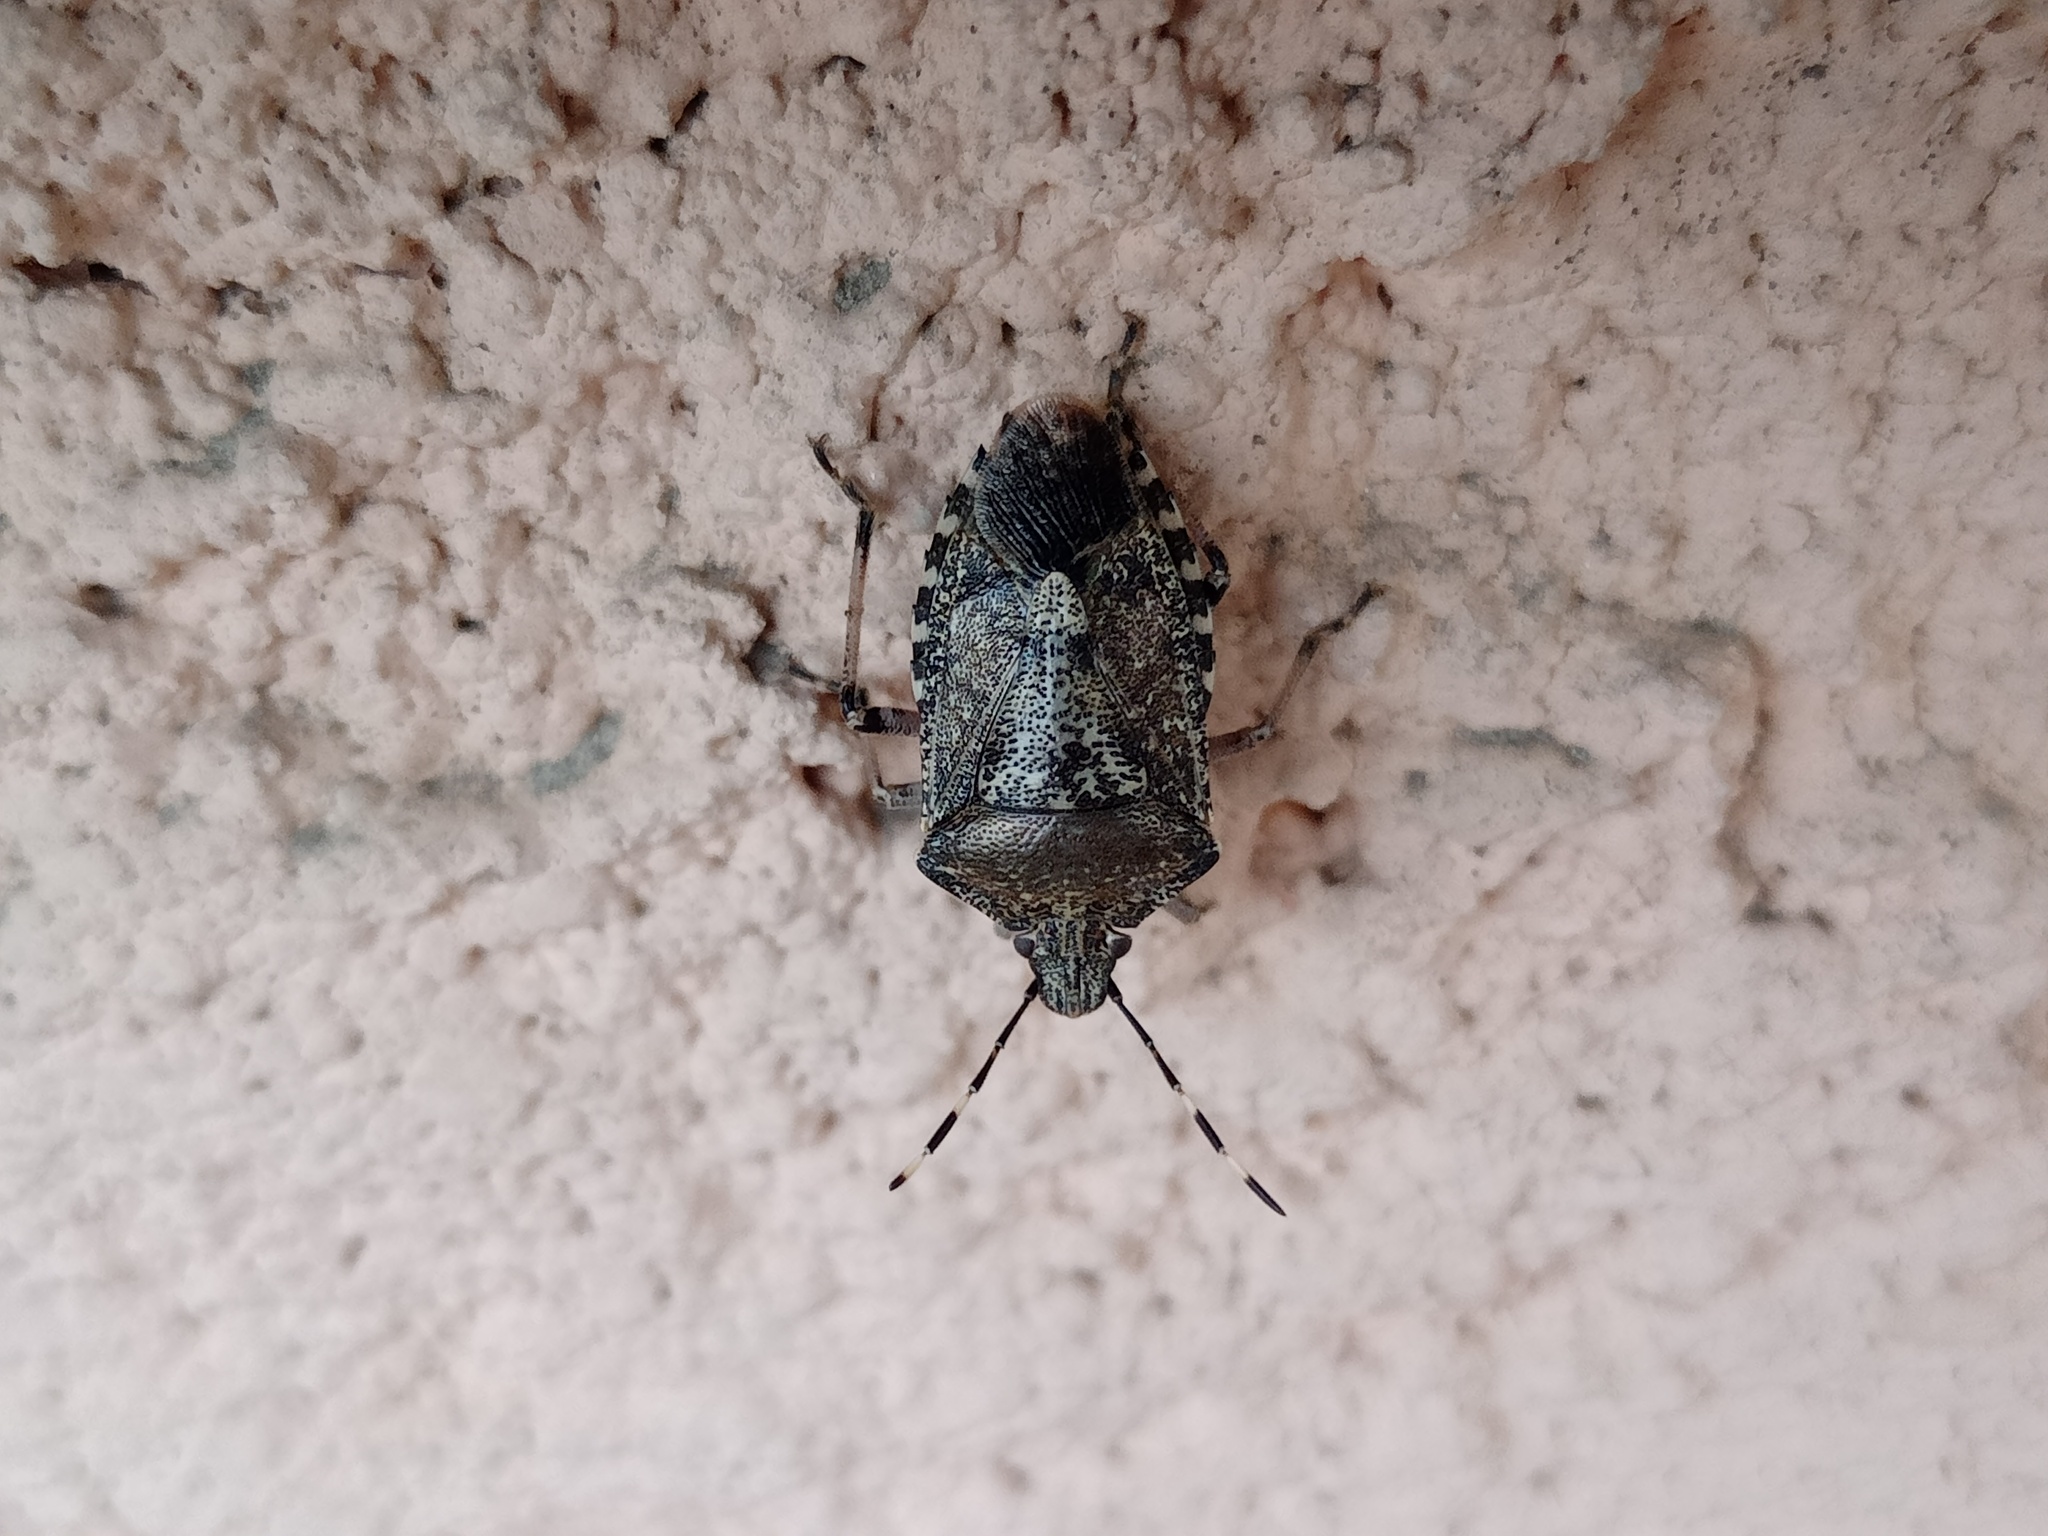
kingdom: Animalia
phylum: Arthropoda
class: Insecta
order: Hemiptera
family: Pentatomidae
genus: Rhaphigaster
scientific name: Rhaphigaster nebulosa
